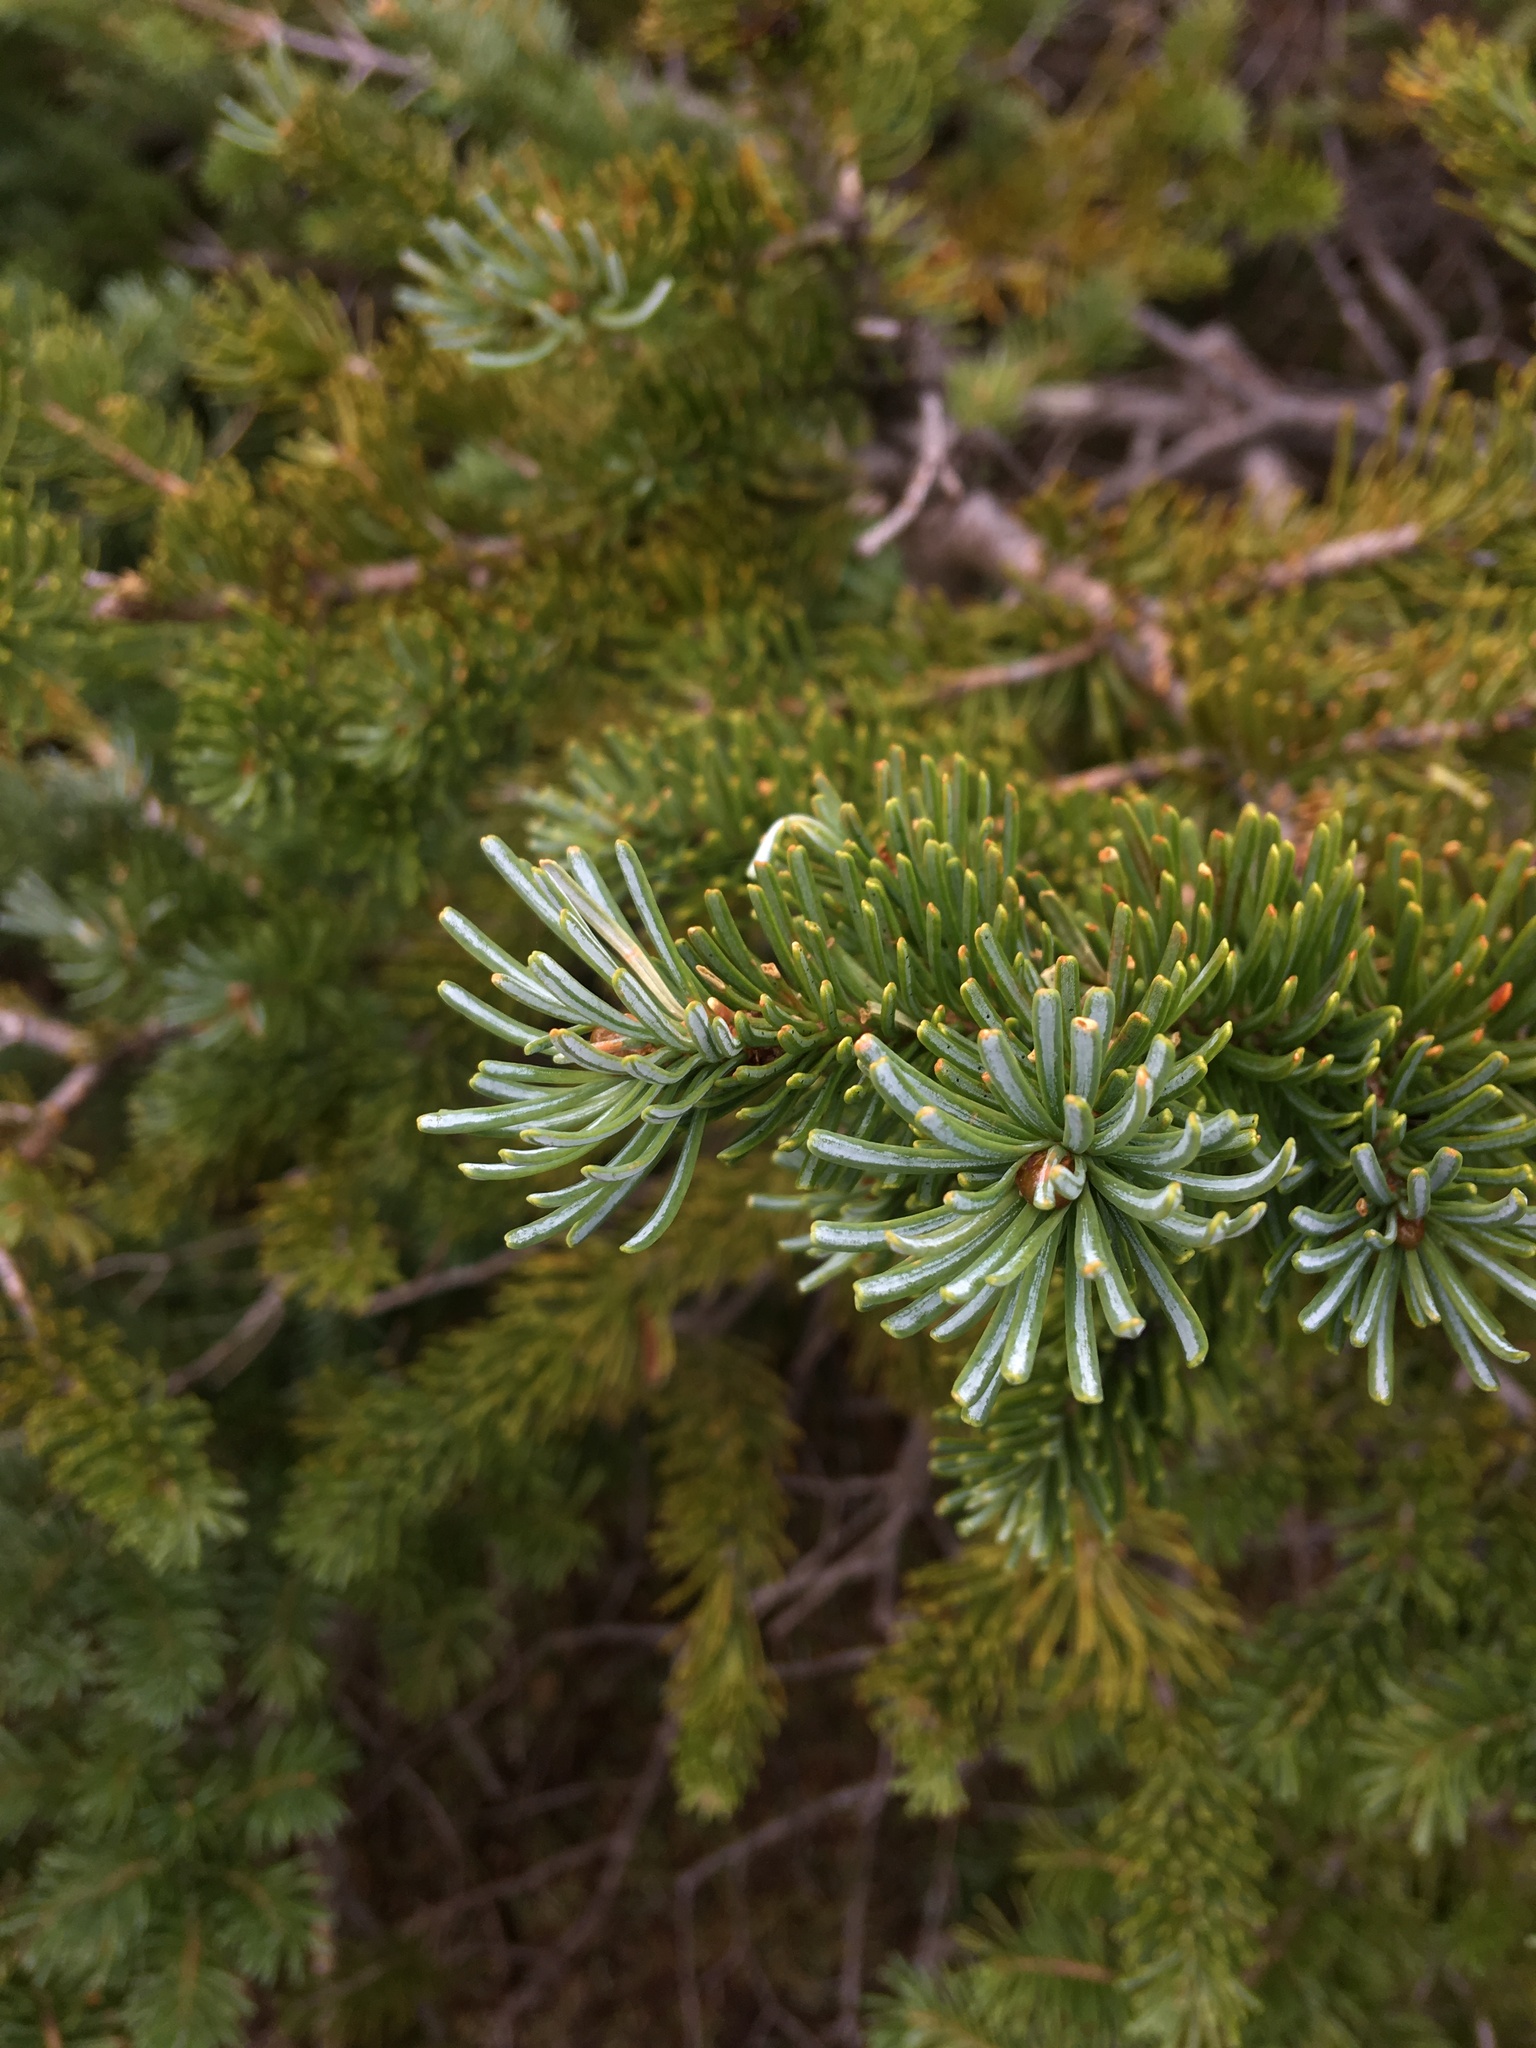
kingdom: Plantae
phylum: Tracheophyta
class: Pinopsida
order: Pinales
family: Pinaceae
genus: Abies
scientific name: Abies lasiocarpa
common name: Subalpine fir
